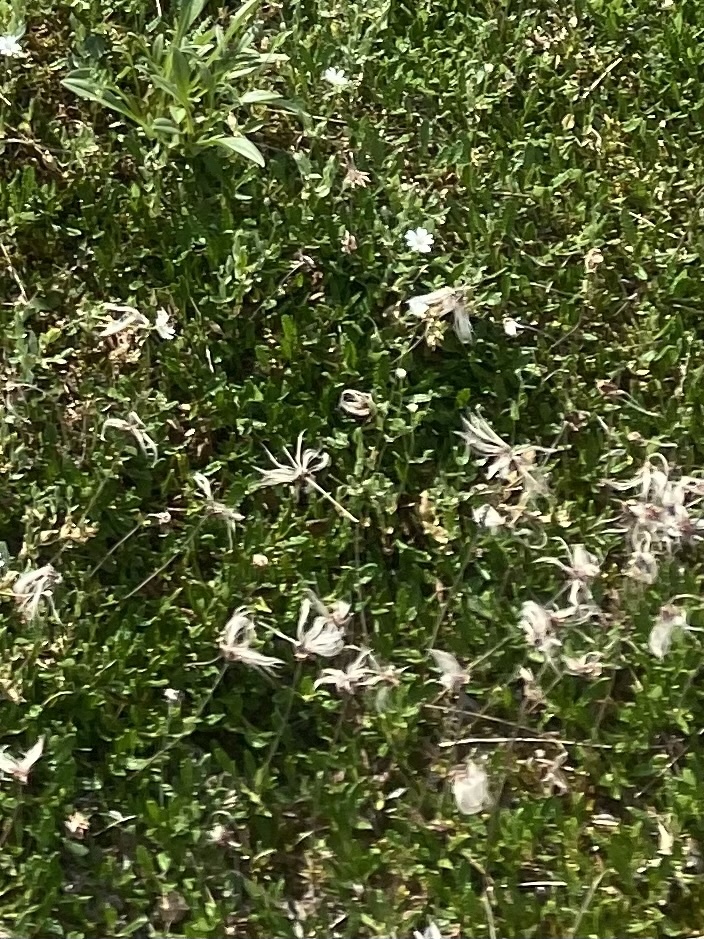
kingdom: Plantae
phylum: Tracheophyta
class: Magnoliopsida
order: Rosales
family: Rosaceae
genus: Dryas
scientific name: Dryas octopetala
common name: Eight-petal mountain-avens
